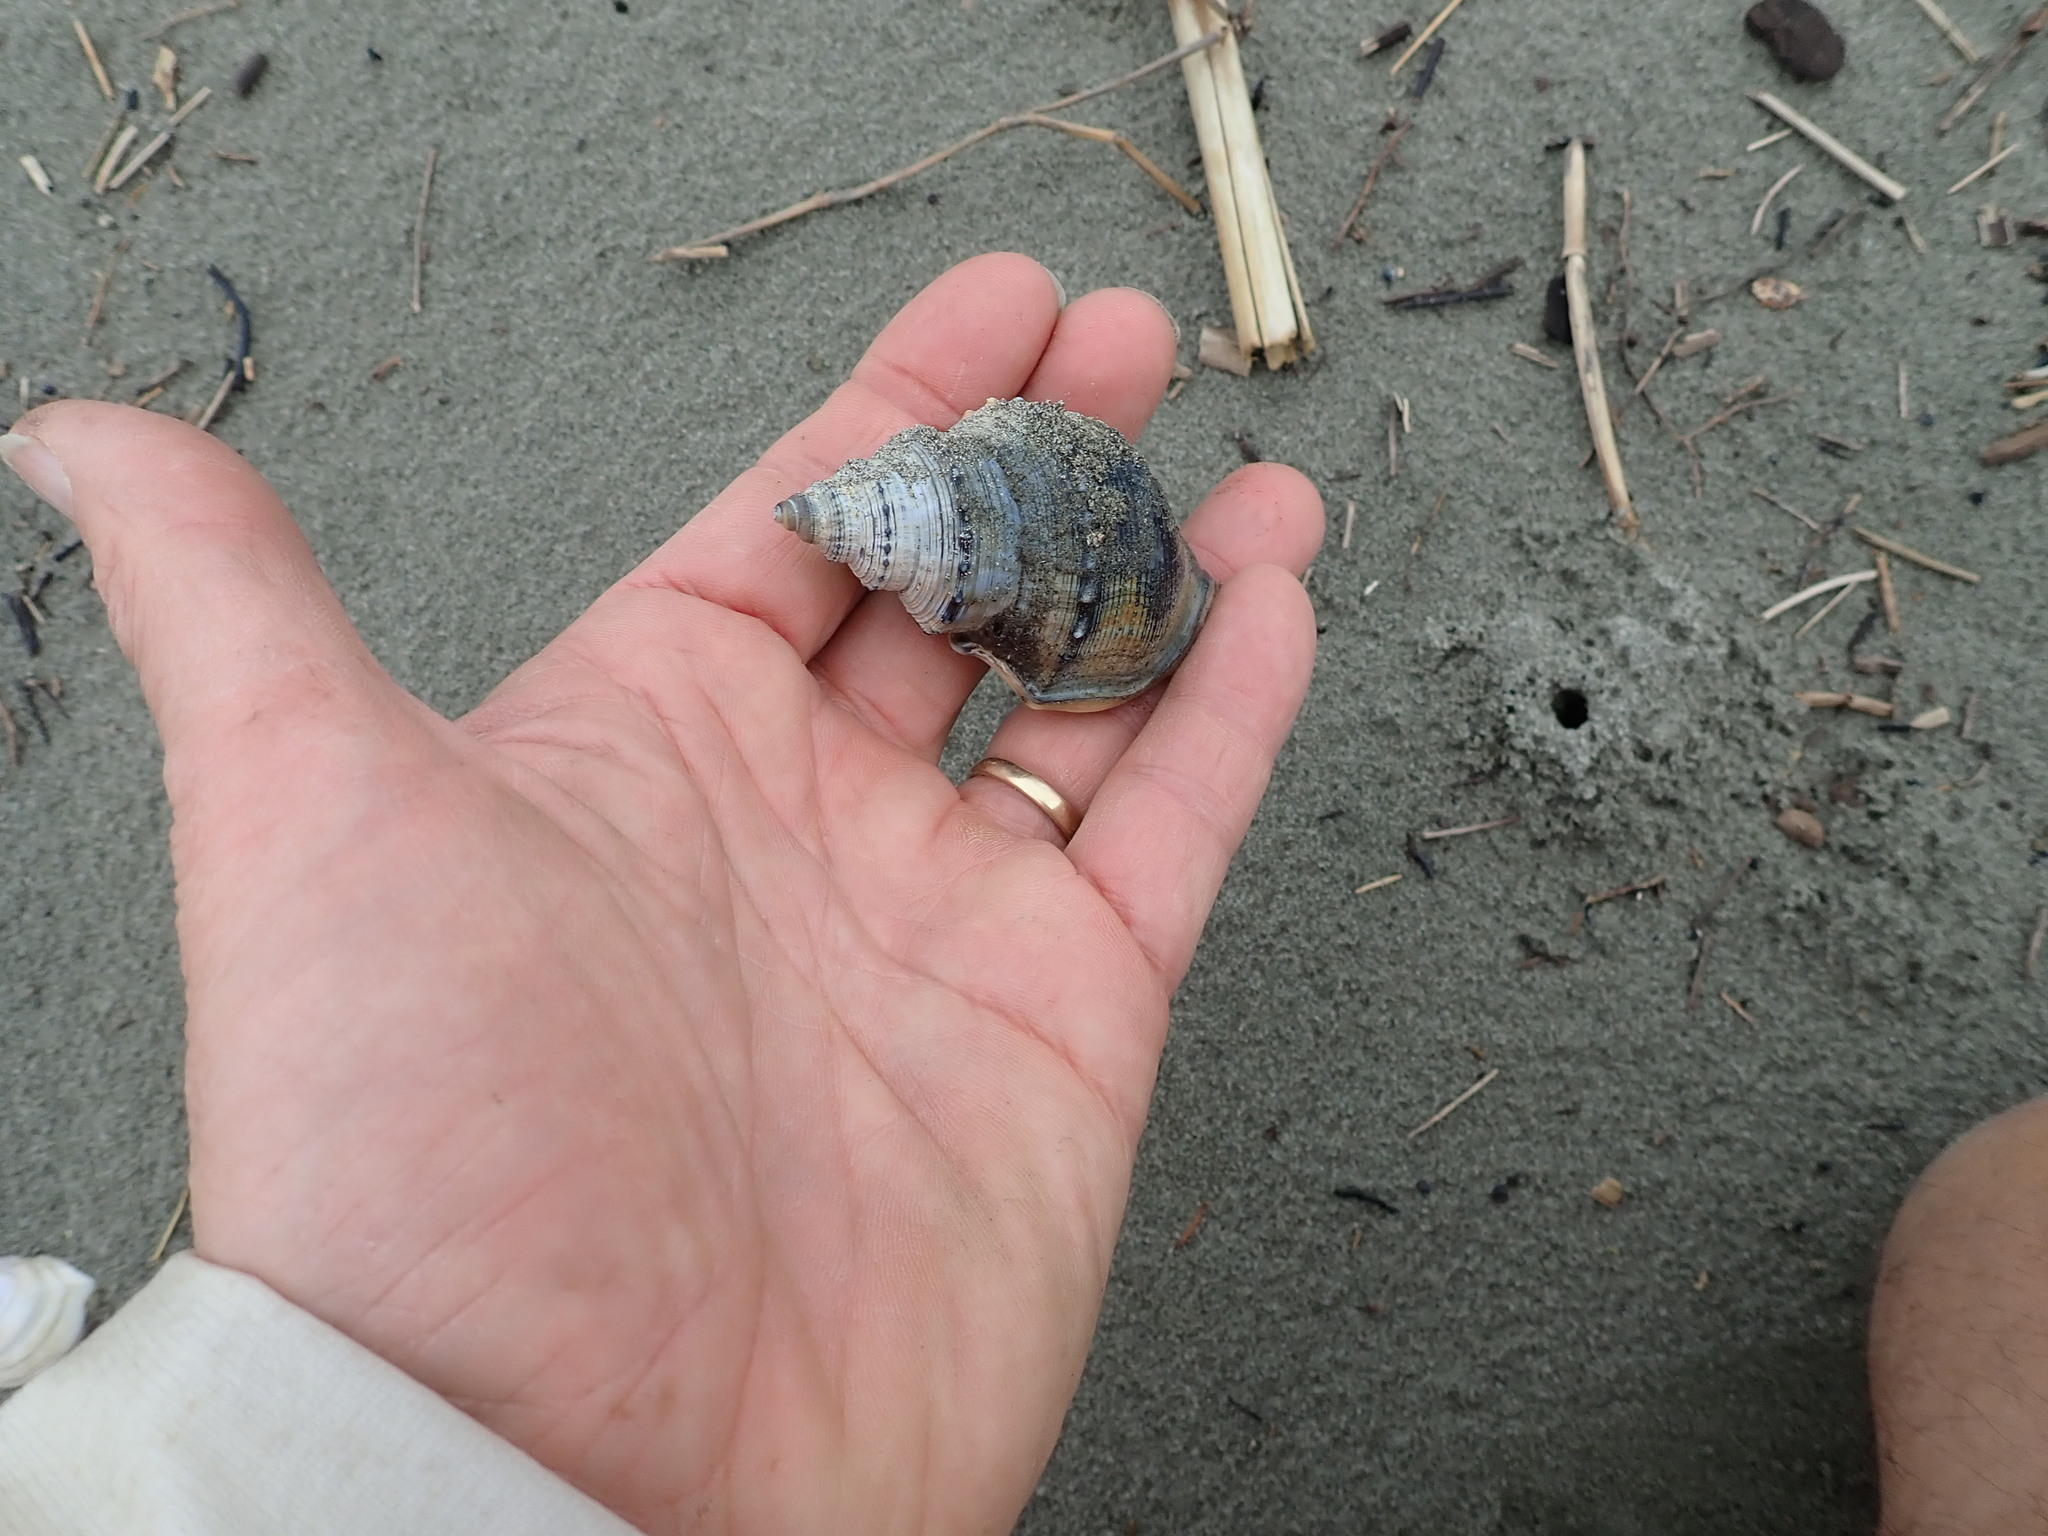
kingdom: Animalia
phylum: Mollusca
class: Gastropoda
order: Littorinimorpha
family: Struthiolariidae
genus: Struthiolaria
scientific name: Struthiolaria papulosa
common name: Large ostrich foot
